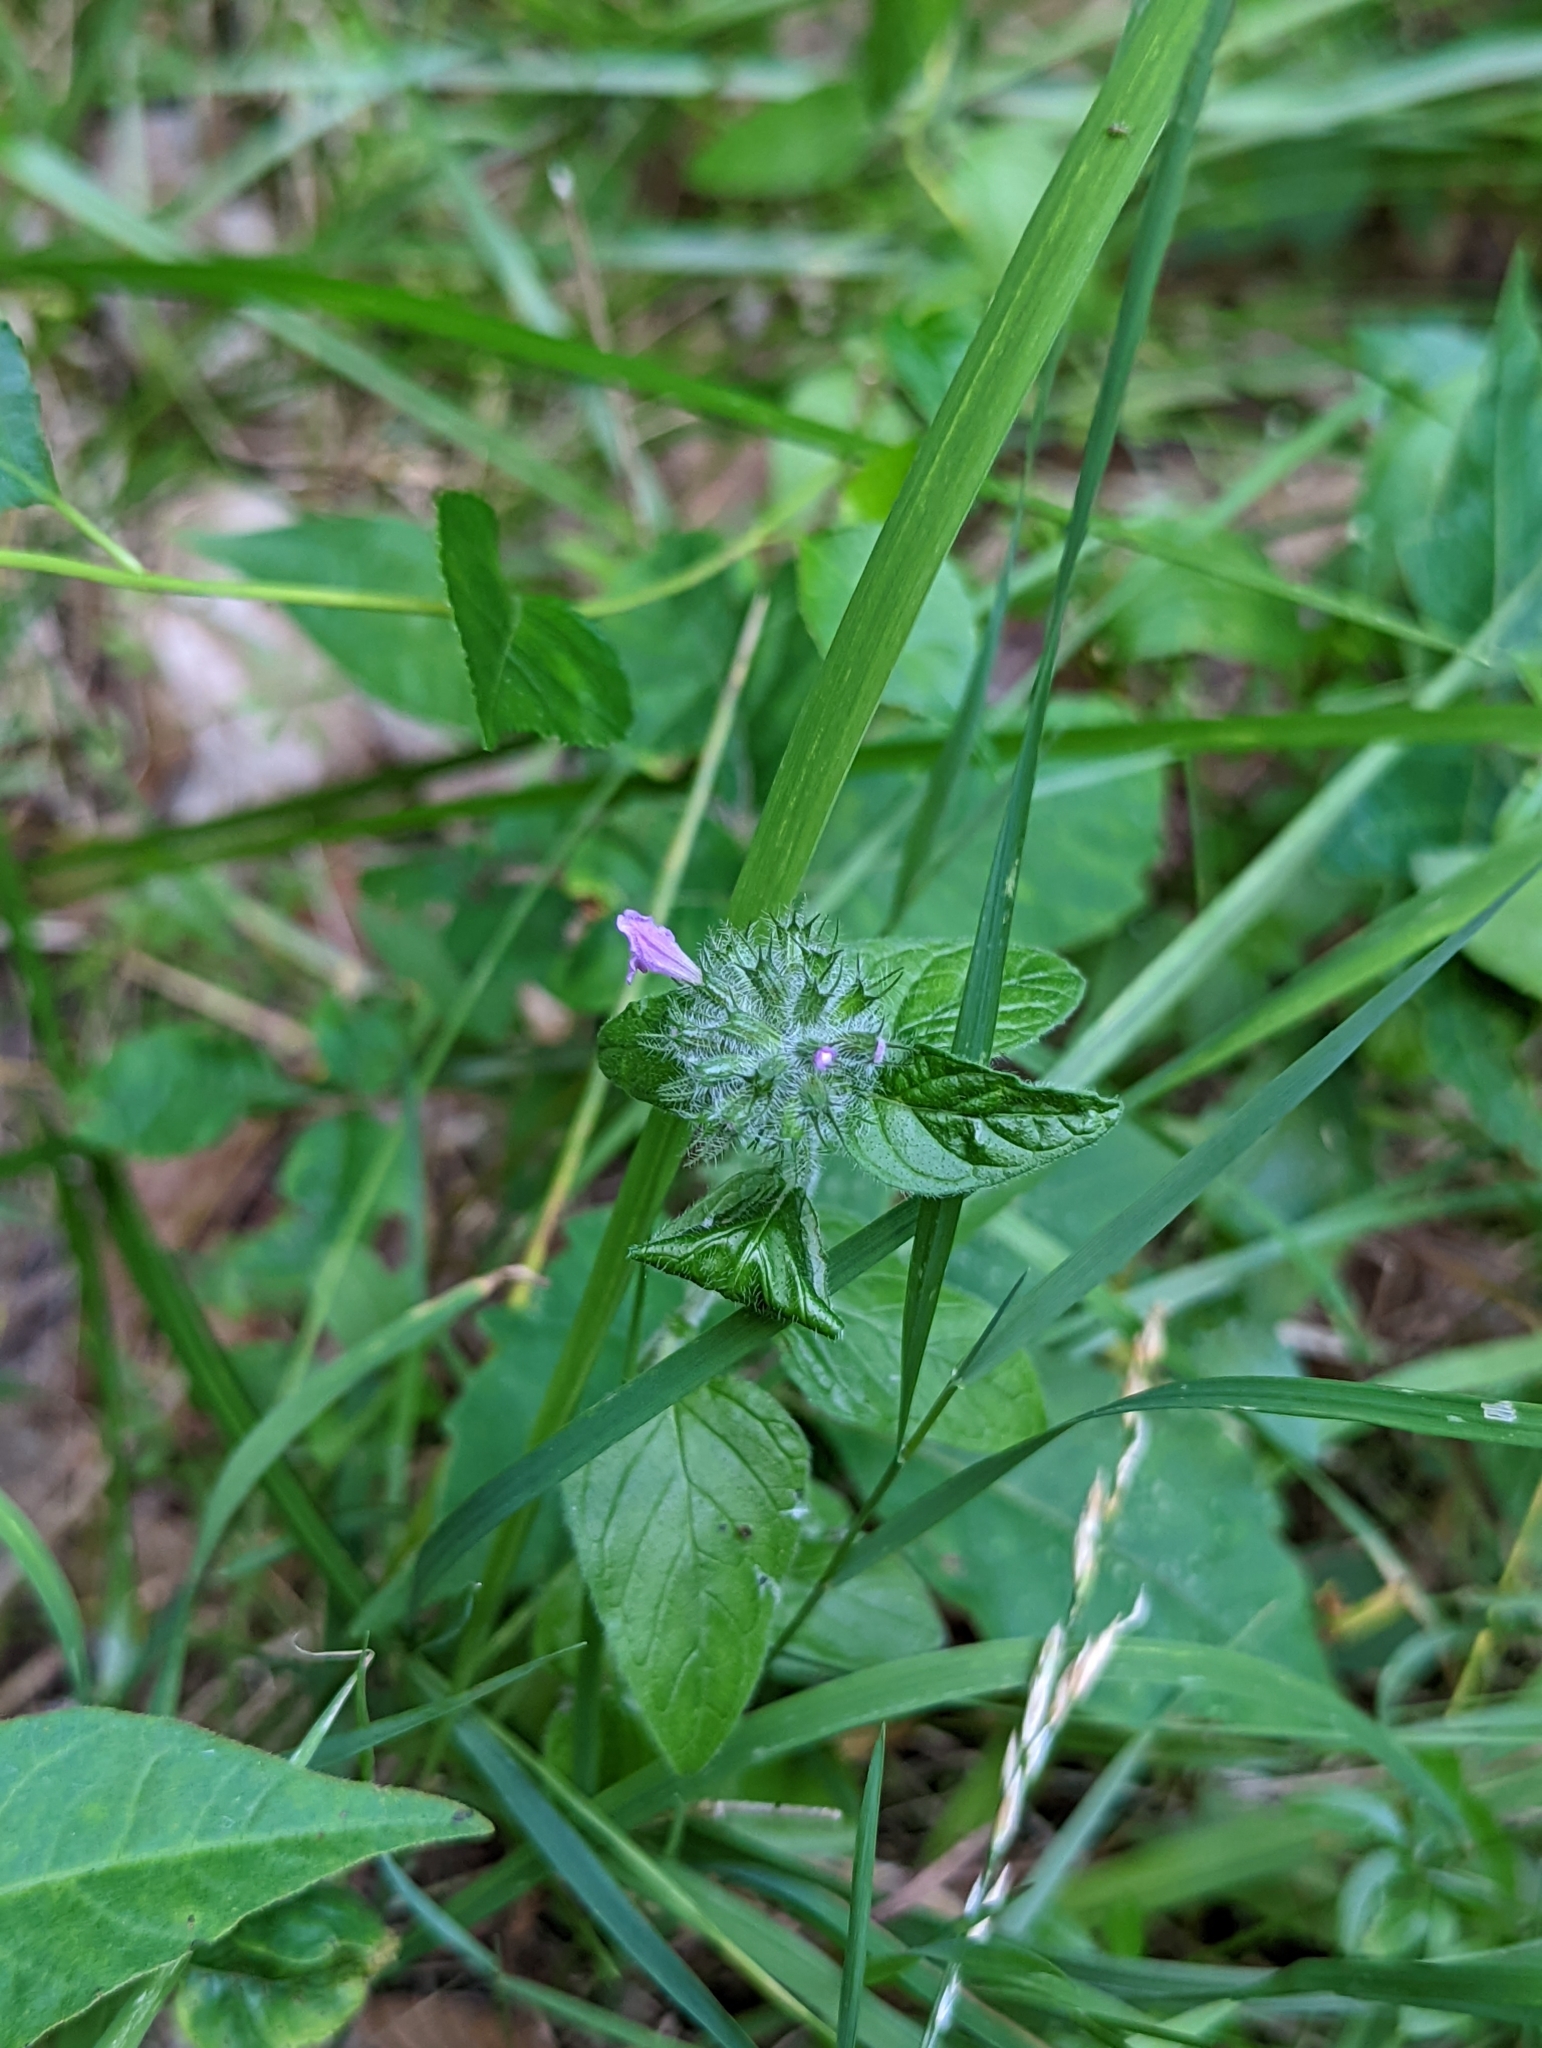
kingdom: Plantae
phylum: Tracheophyta
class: Magnoliopsida
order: Lamiales
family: Lamiaceae
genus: Clinopodium
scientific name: Clinopodium vulgare
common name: Wild basil
